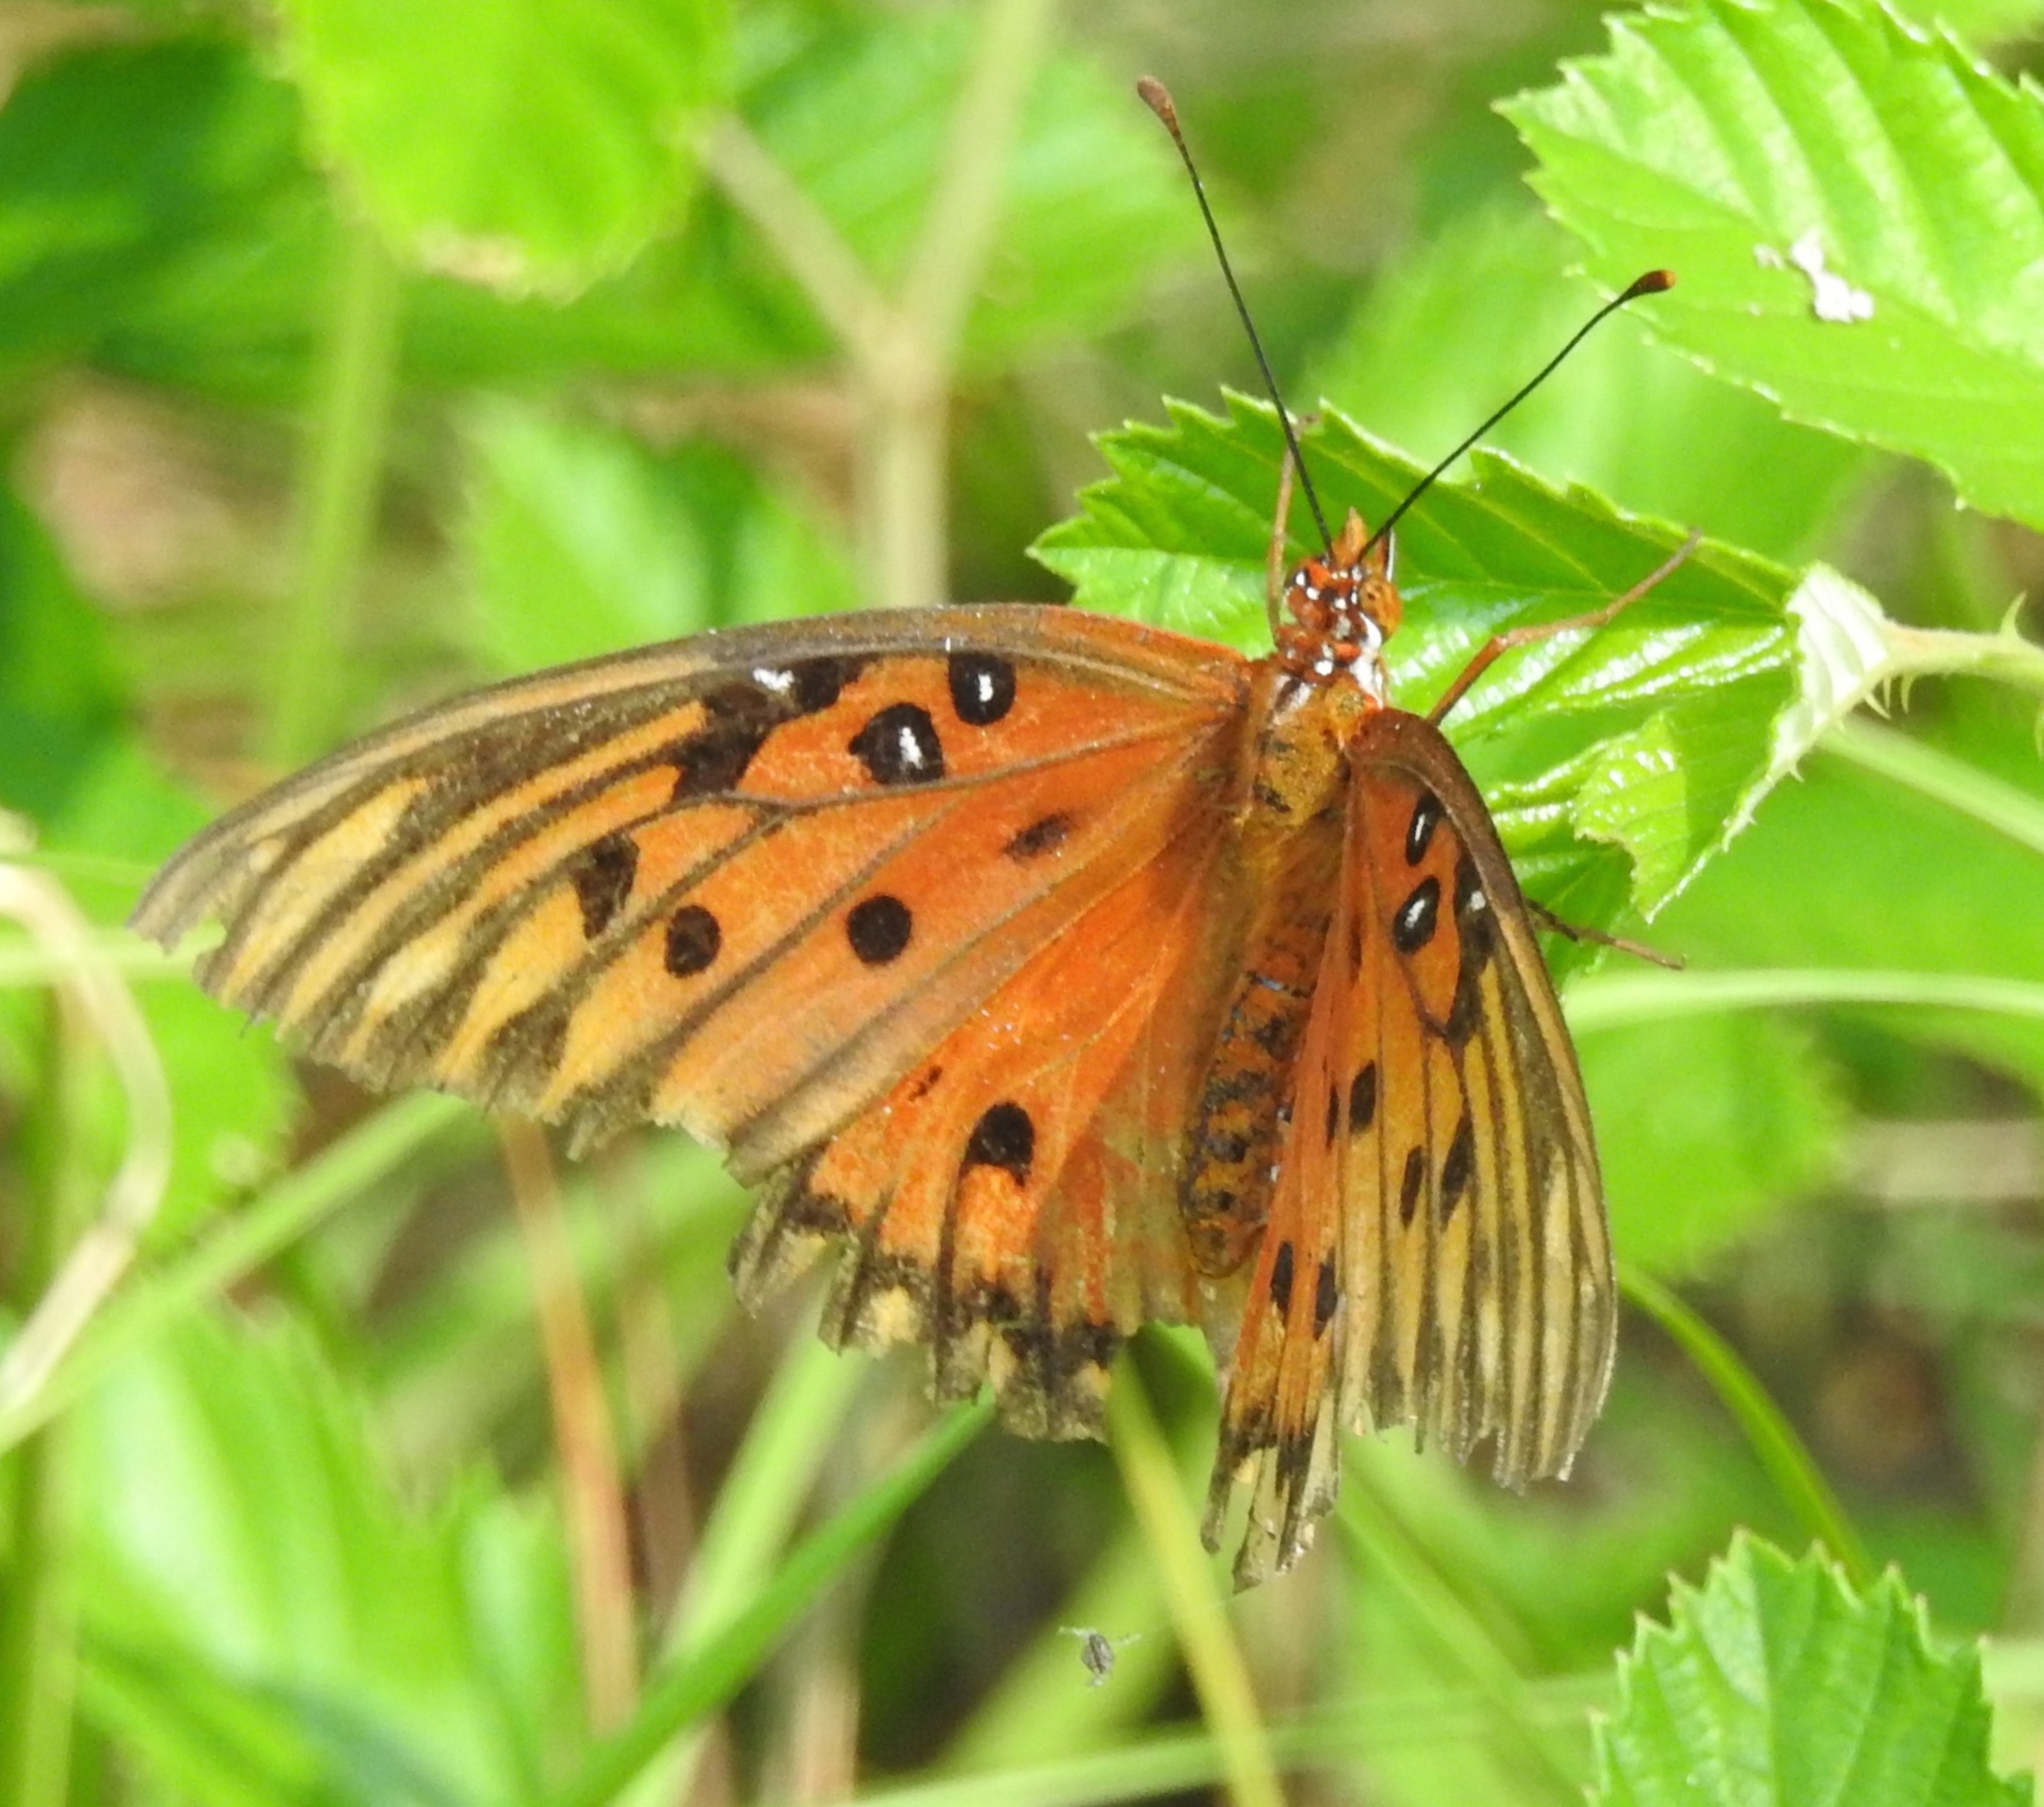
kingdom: Animalia
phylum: Arthropoda
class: Insecta
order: Lepidoptera
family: Nymphalidae
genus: Dione
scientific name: Dione vanillae
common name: Gulf fritillary
